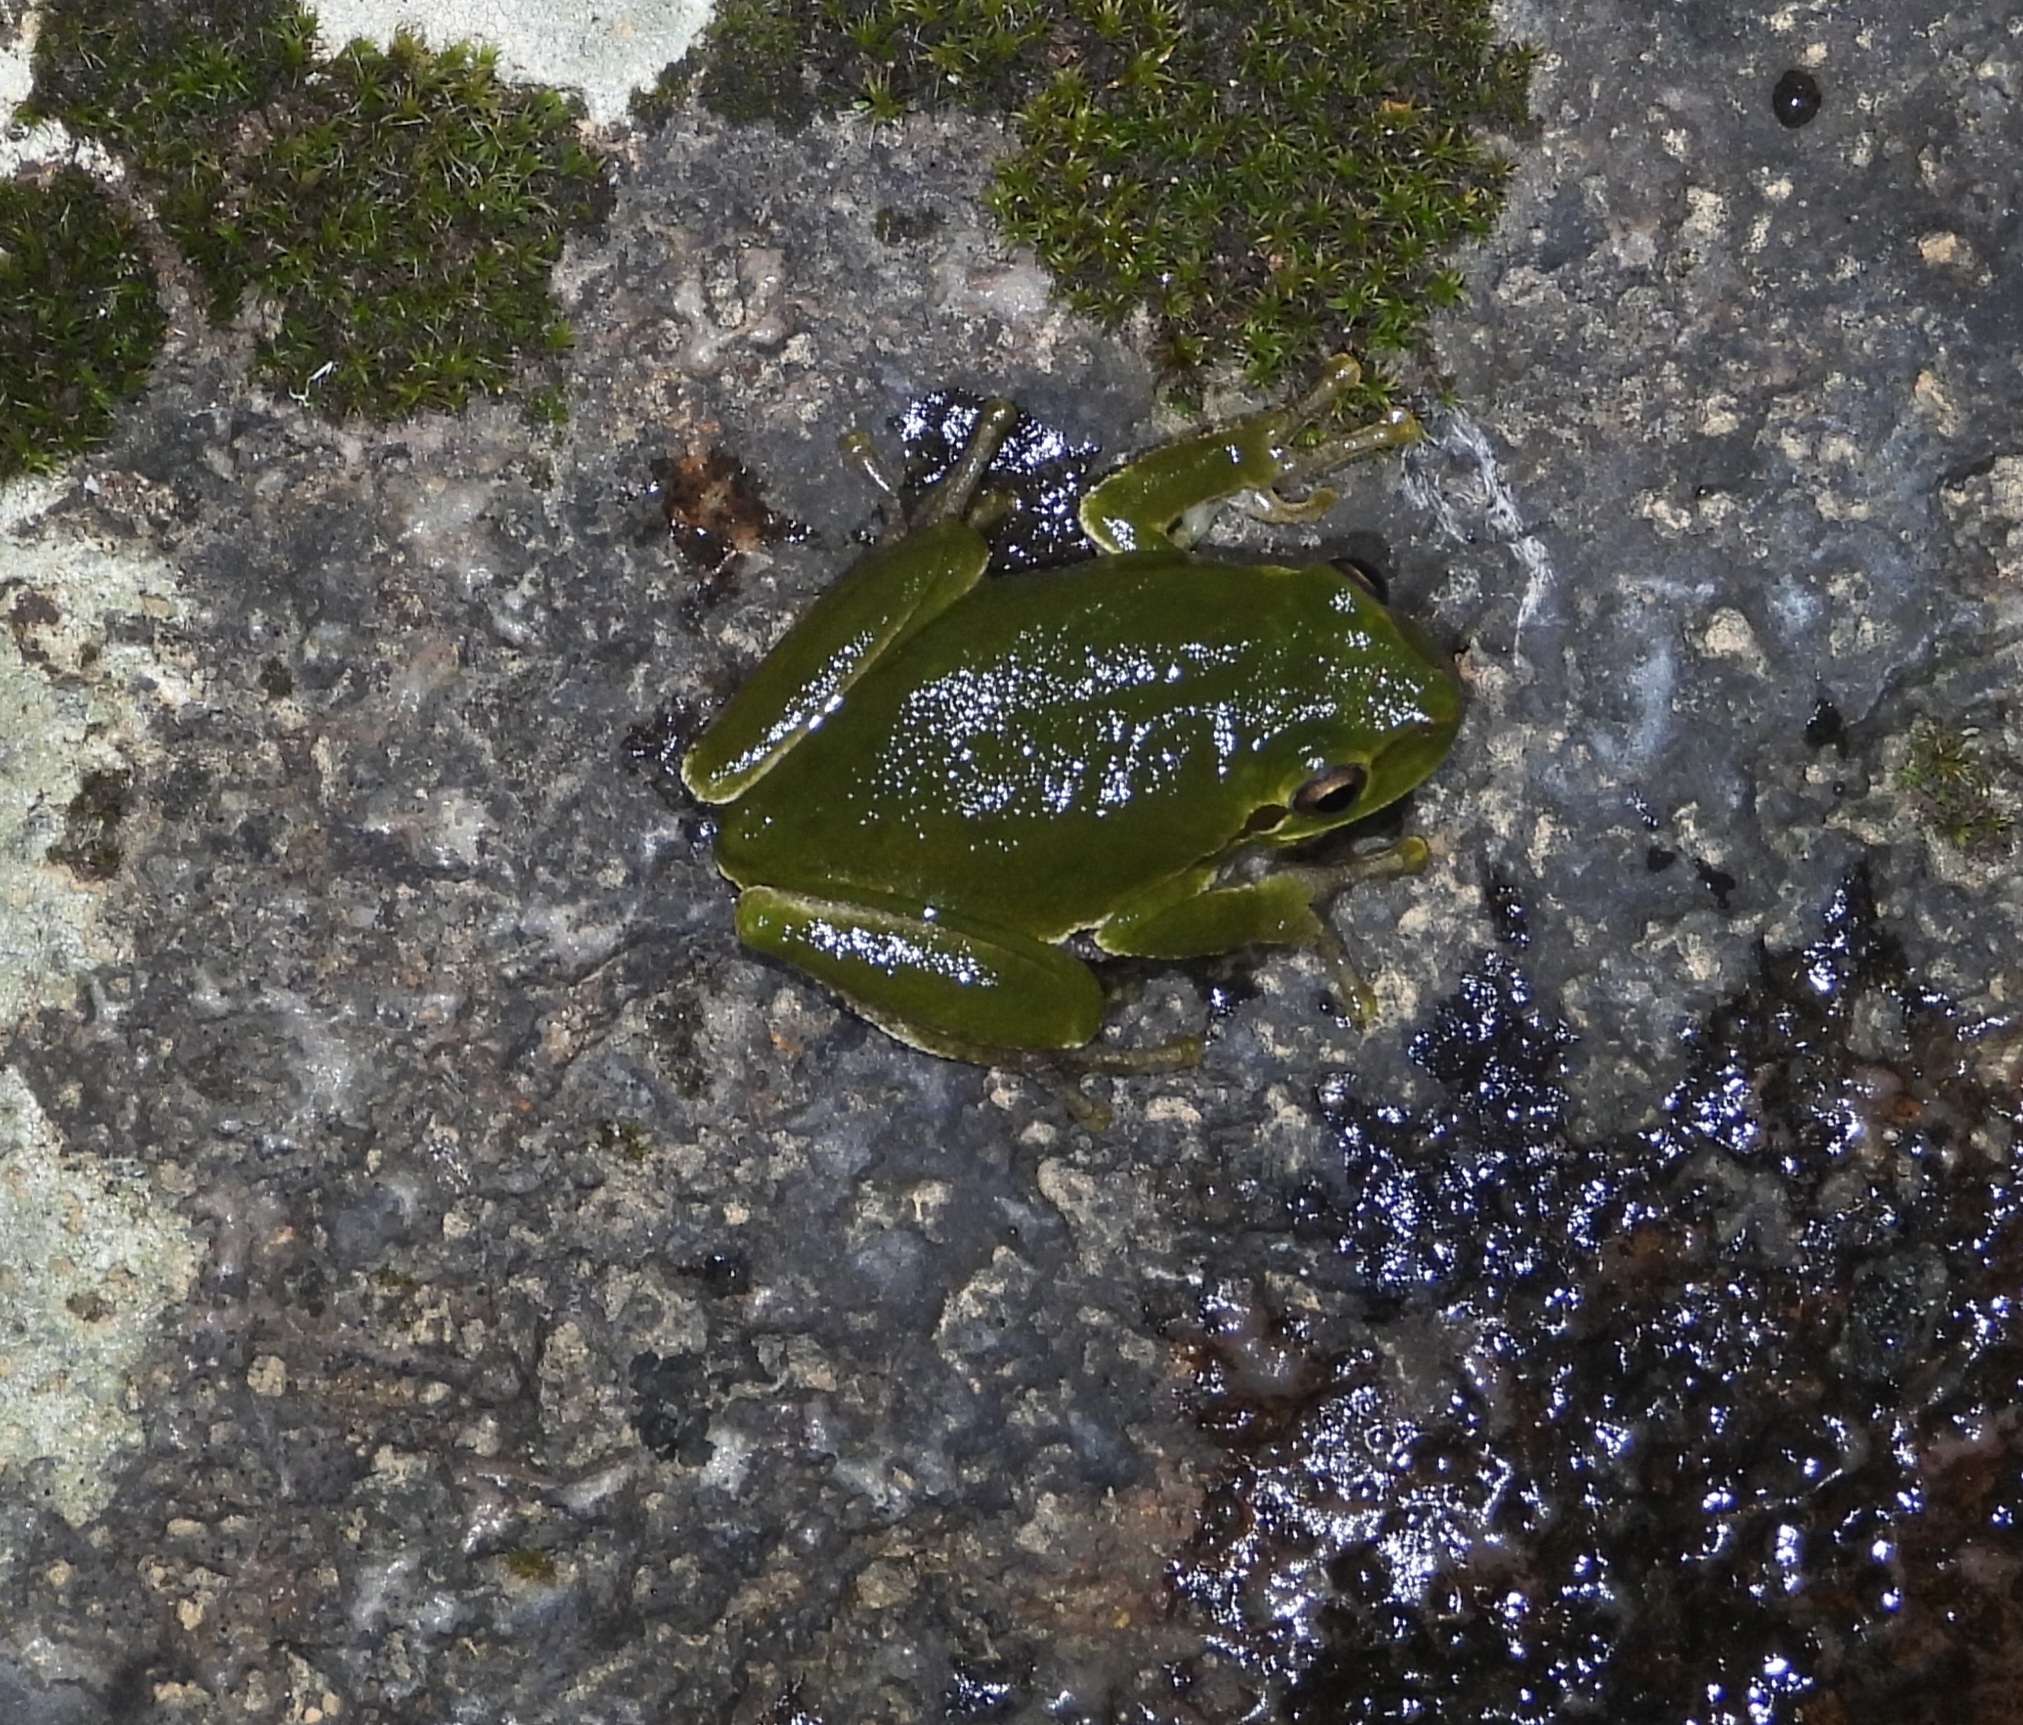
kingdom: Animalia
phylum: Chordata
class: Amphibia
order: Anura
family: Hylidae
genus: Hyla
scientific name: Hyla sarda
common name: Sardinian tree frog
